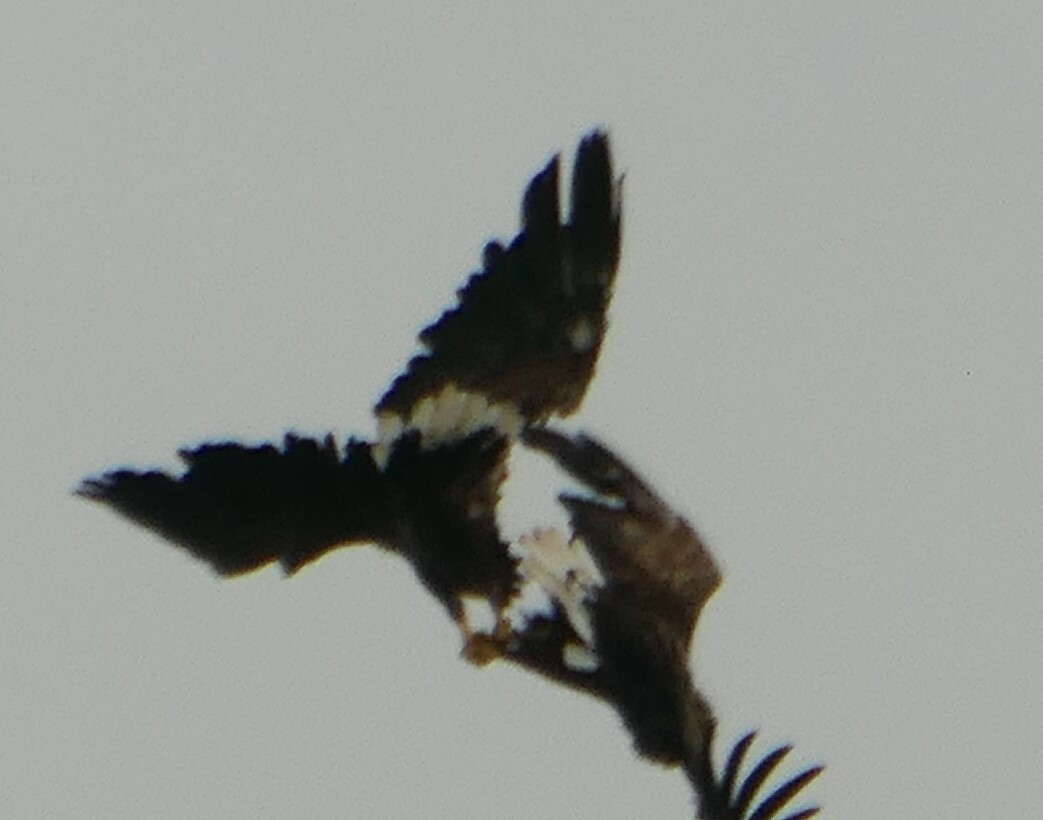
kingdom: Animalia
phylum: Chordata
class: Aves
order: Accipitriformes
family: Accipitridae
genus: Haliaeetus
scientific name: Haliaeetus albicilla
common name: White-tailed eagle
